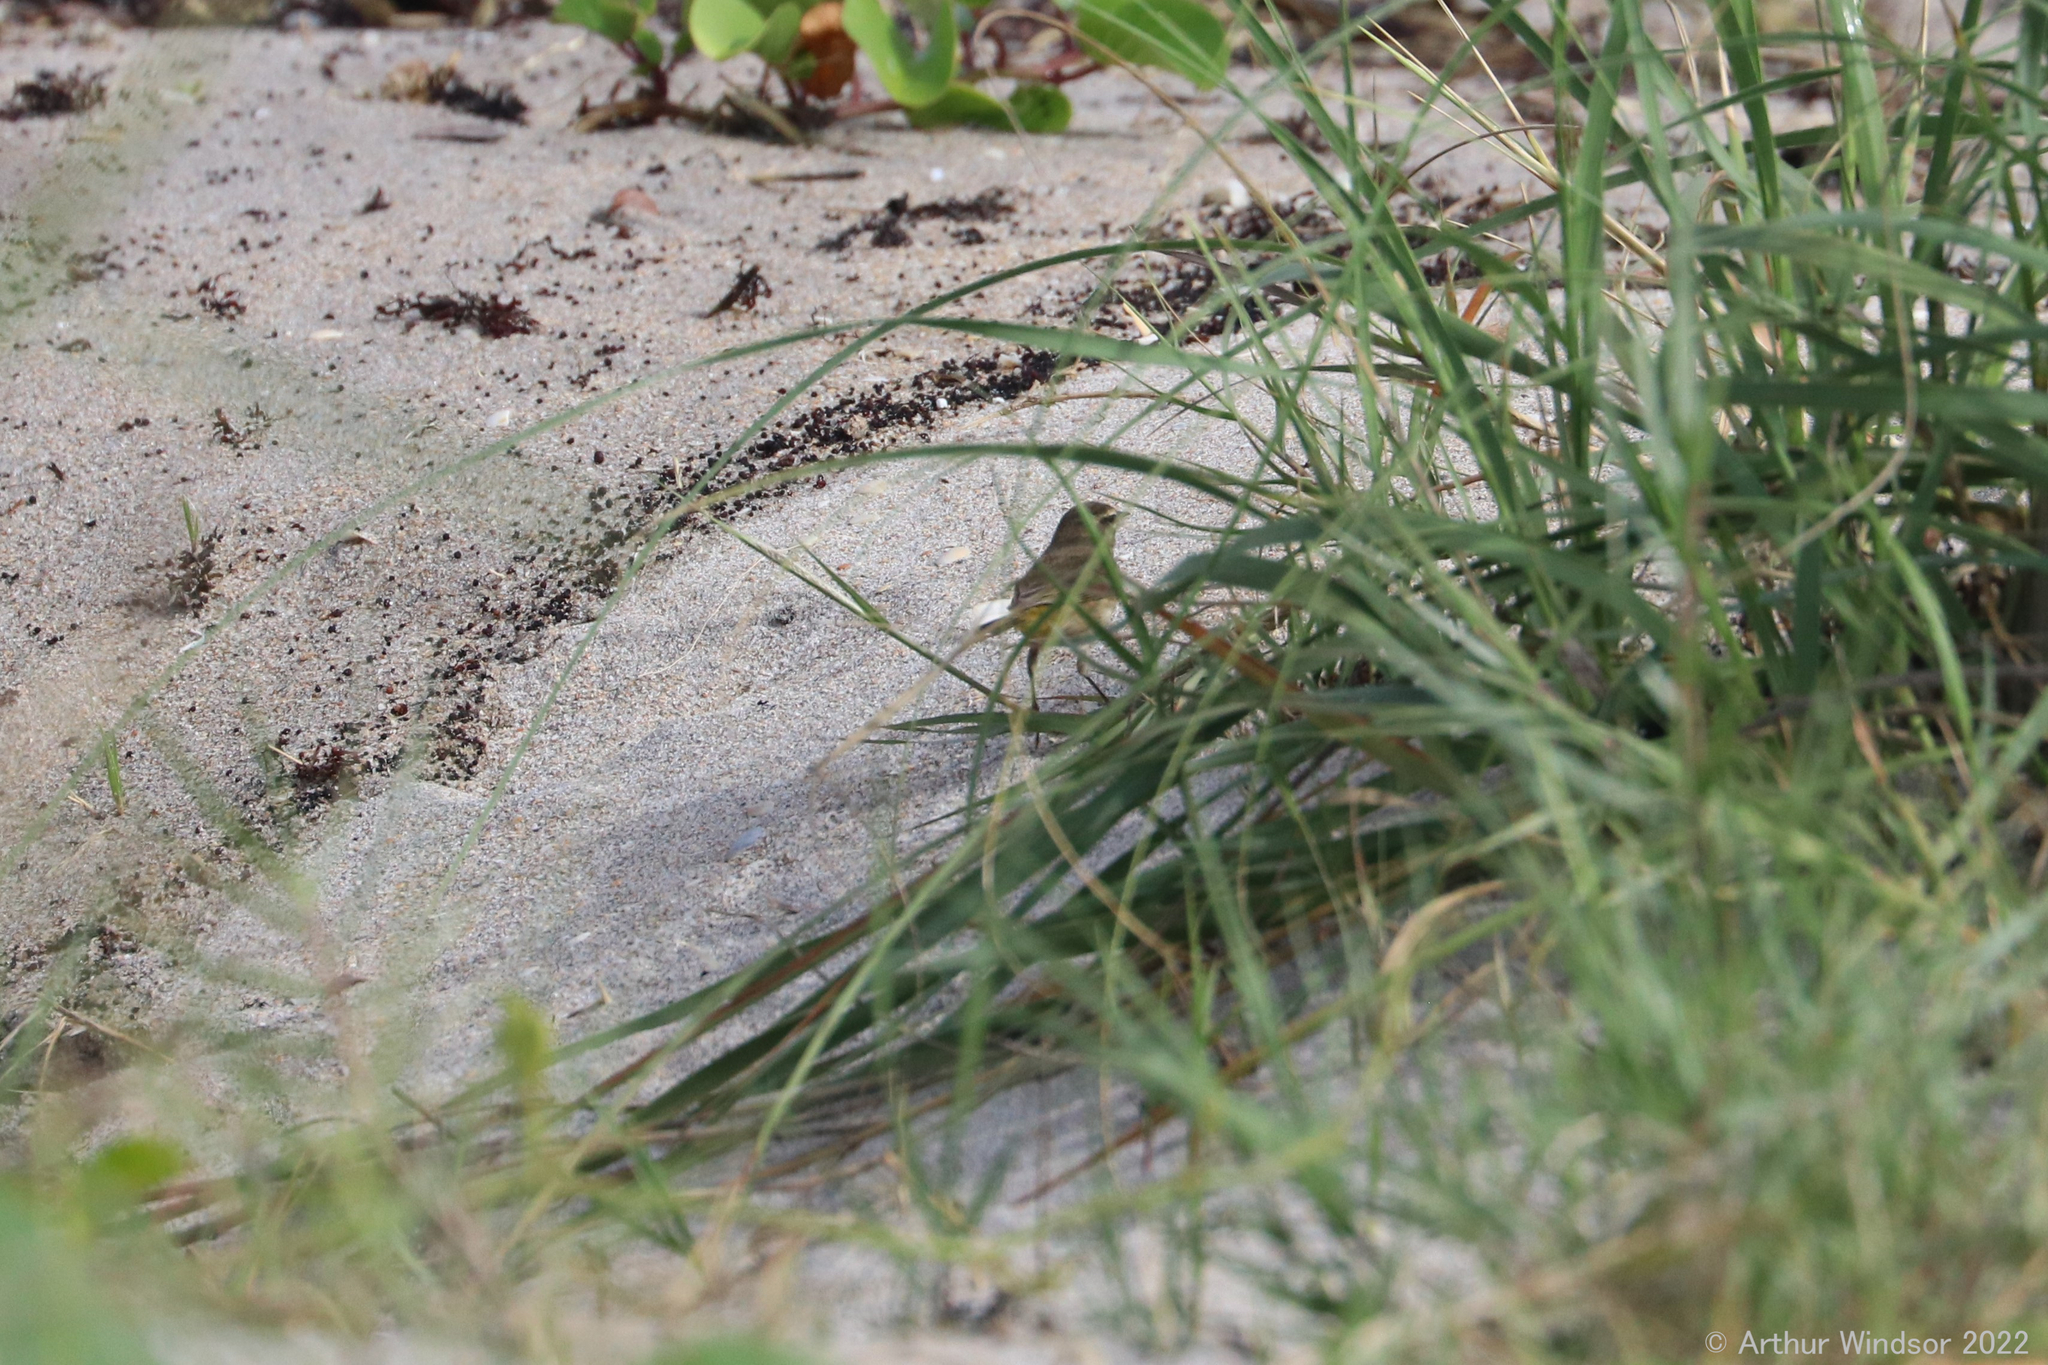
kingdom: Animalia
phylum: Chordata
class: Aves
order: Passeriformes
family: Parulidae
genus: Setophaga
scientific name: Setophaga palmarum
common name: Palm warbler
